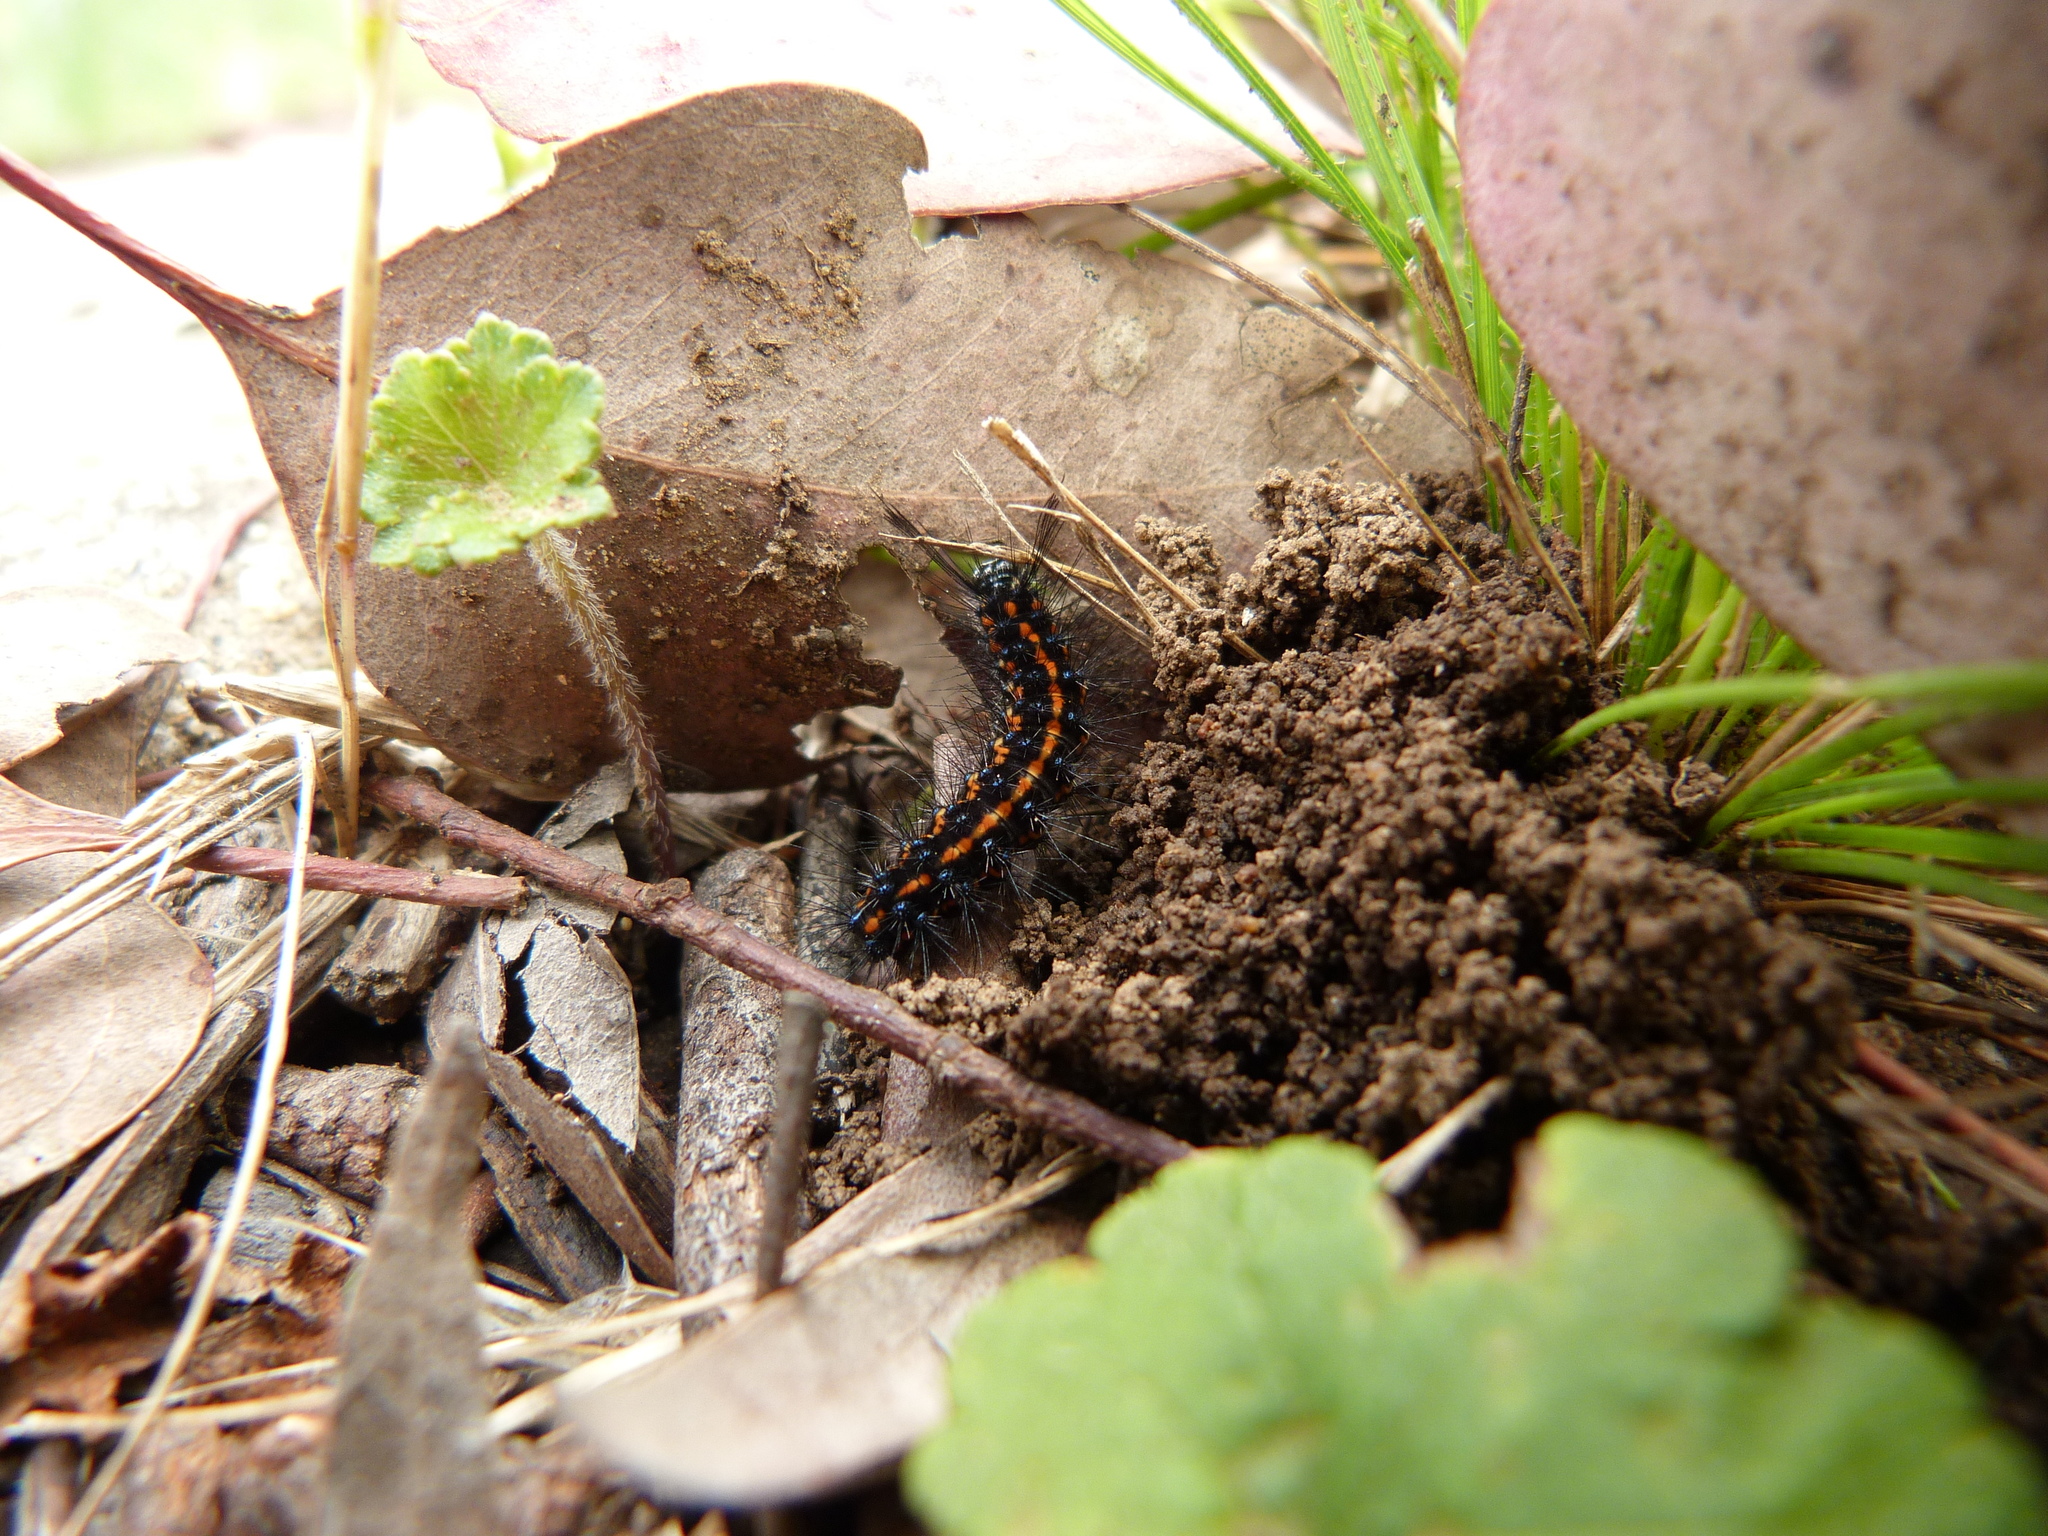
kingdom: Animalia
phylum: Arthropoda
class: Insecta
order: Lepidoptera
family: Erebidae
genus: Nyctemera
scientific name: Nyctemera amicus
